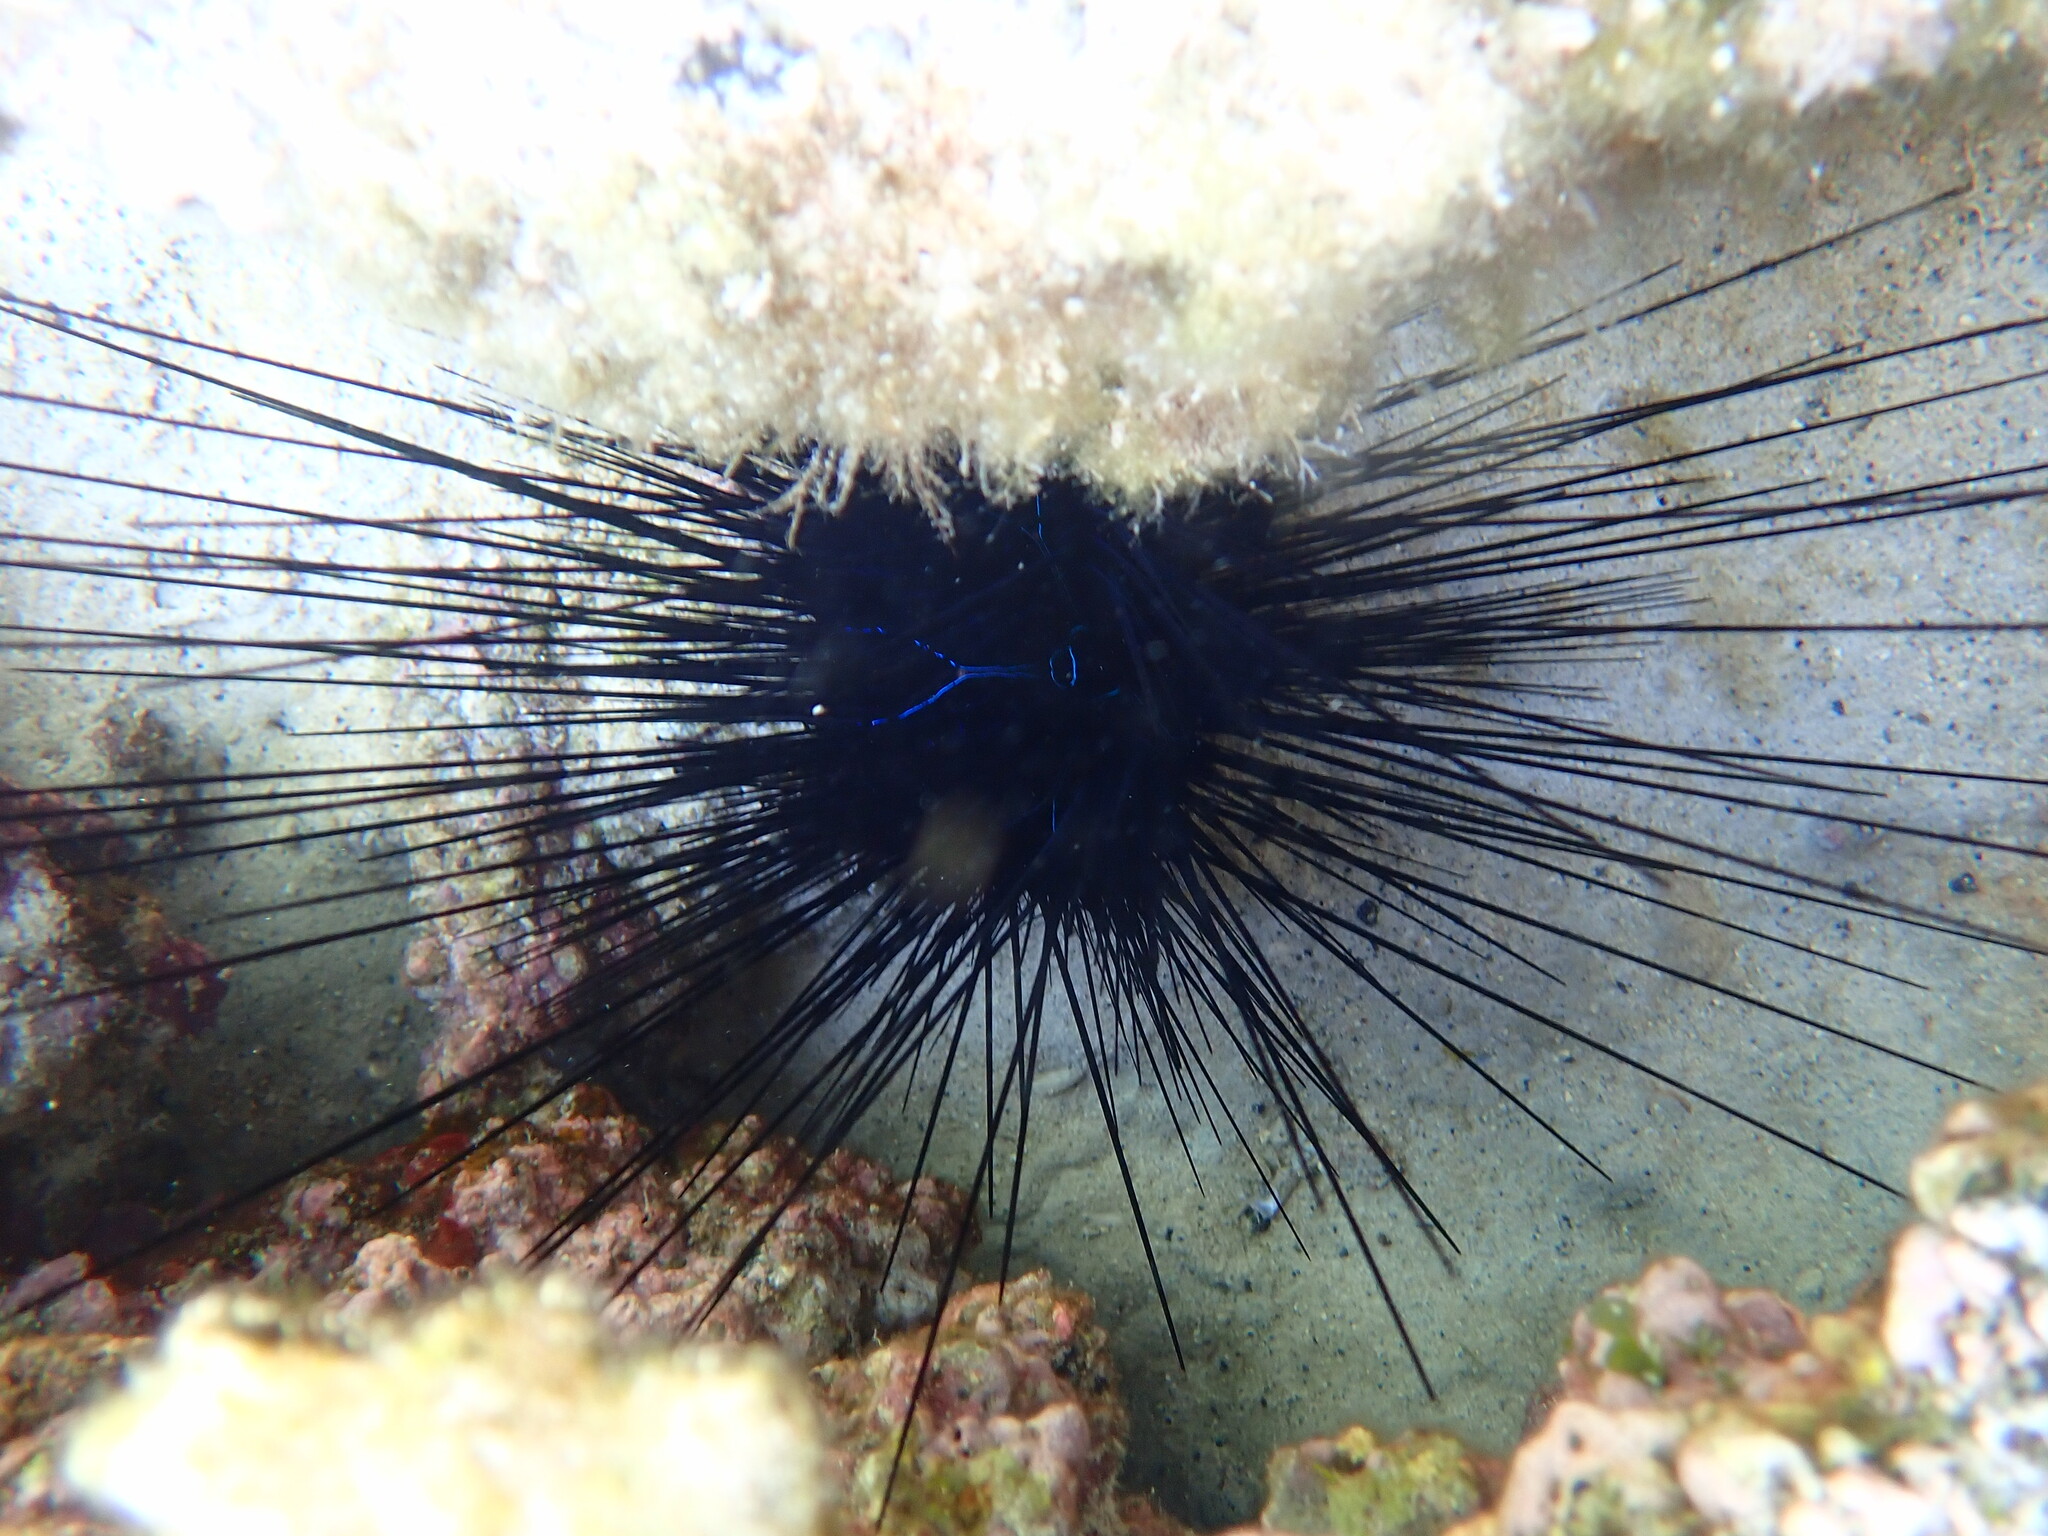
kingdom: Animalia
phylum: Echinodermata
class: Echinoidea
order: Diadematoida
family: Diadematidae
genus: Diadema
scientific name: Diadema savignyi
